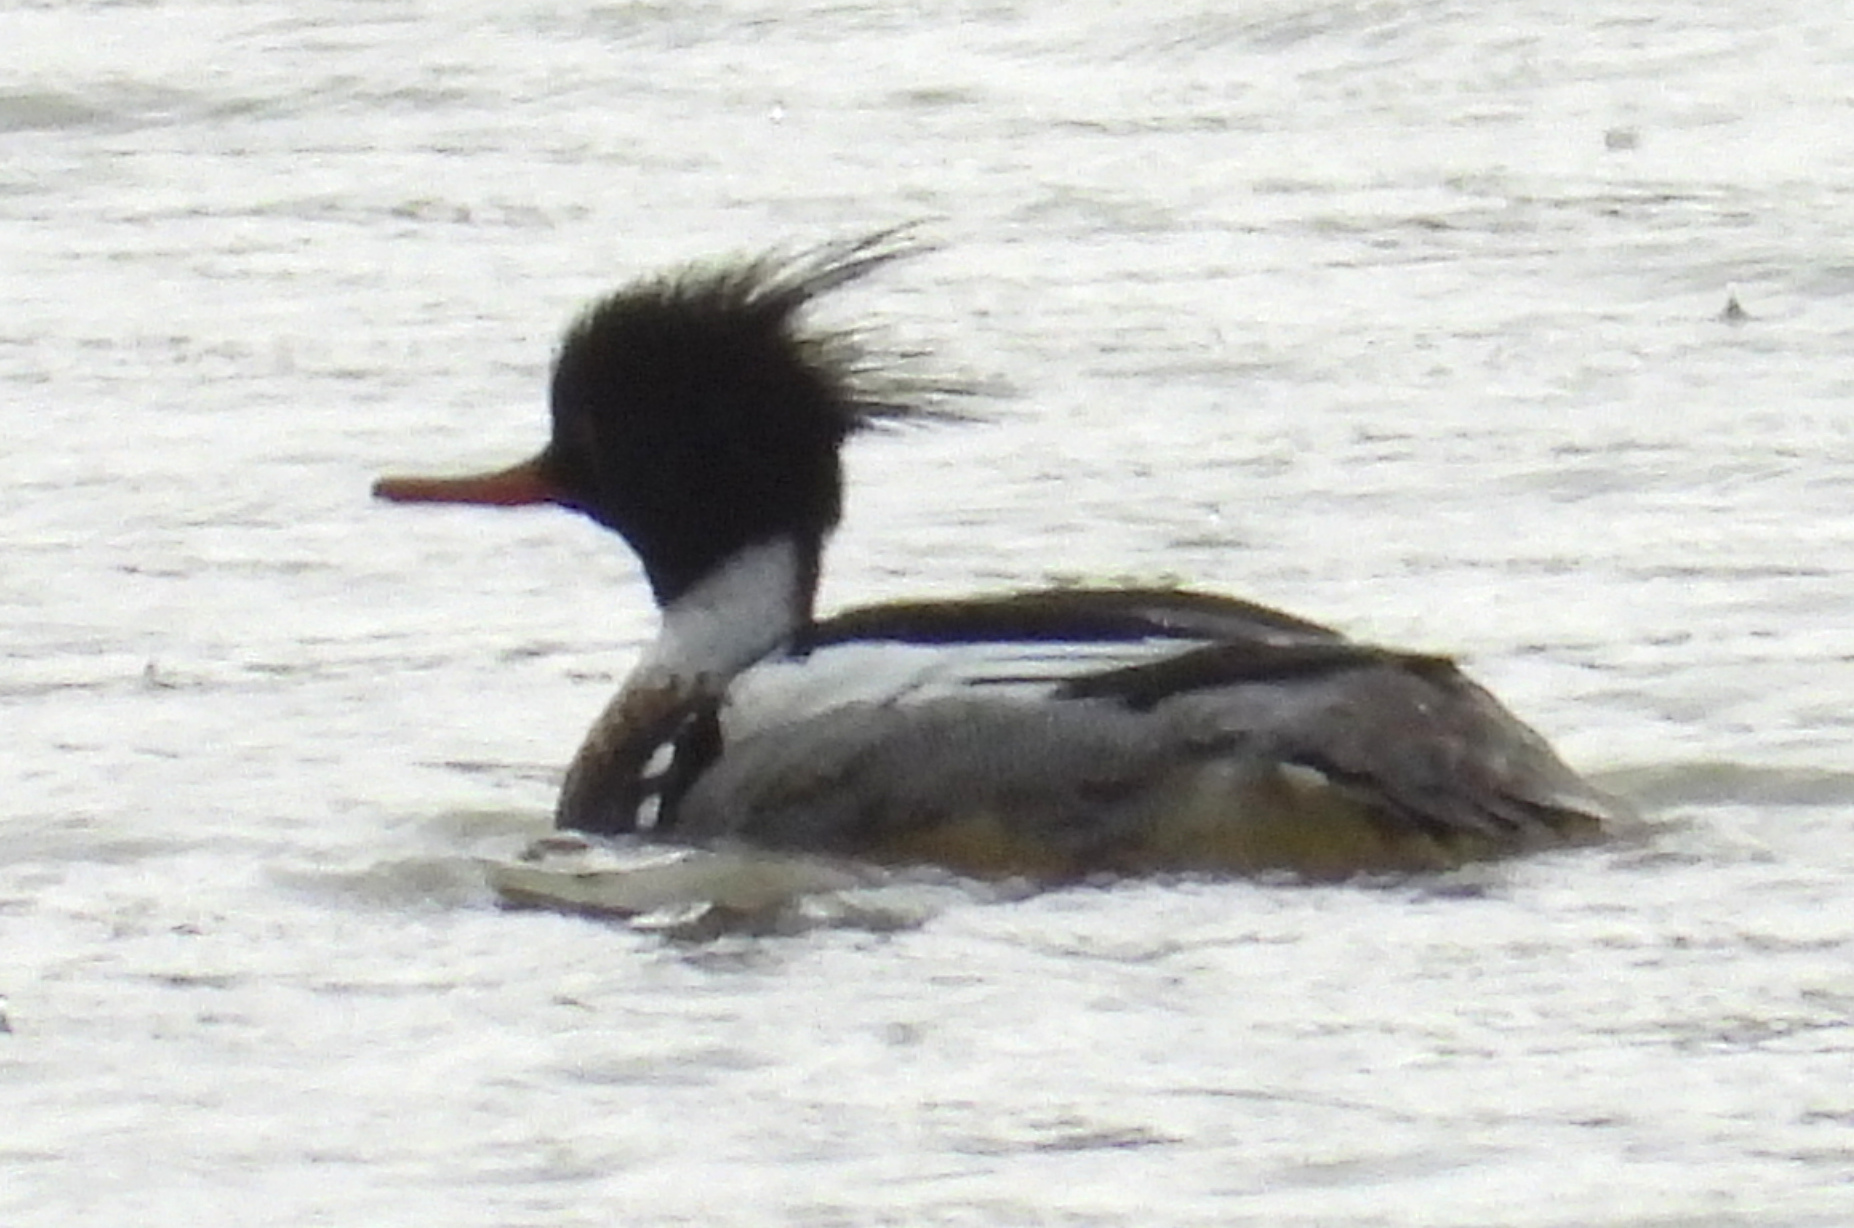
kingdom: Animalia
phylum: Chordata
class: Aves
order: Anseriformes
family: Anatidae
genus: Mergus
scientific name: Mergus serrator
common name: Red-breasted merganser
